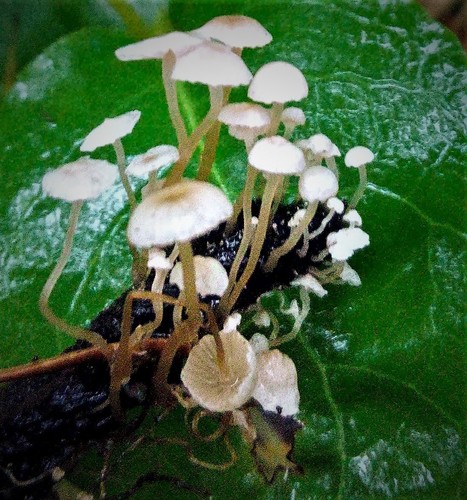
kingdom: Fungi
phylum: Basidiomycota
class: Agaricomycetes
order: Agaricales
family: Tricholomataceae
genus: Collybia
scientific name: Collybia cirrhata
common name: Piggyback shanklet
